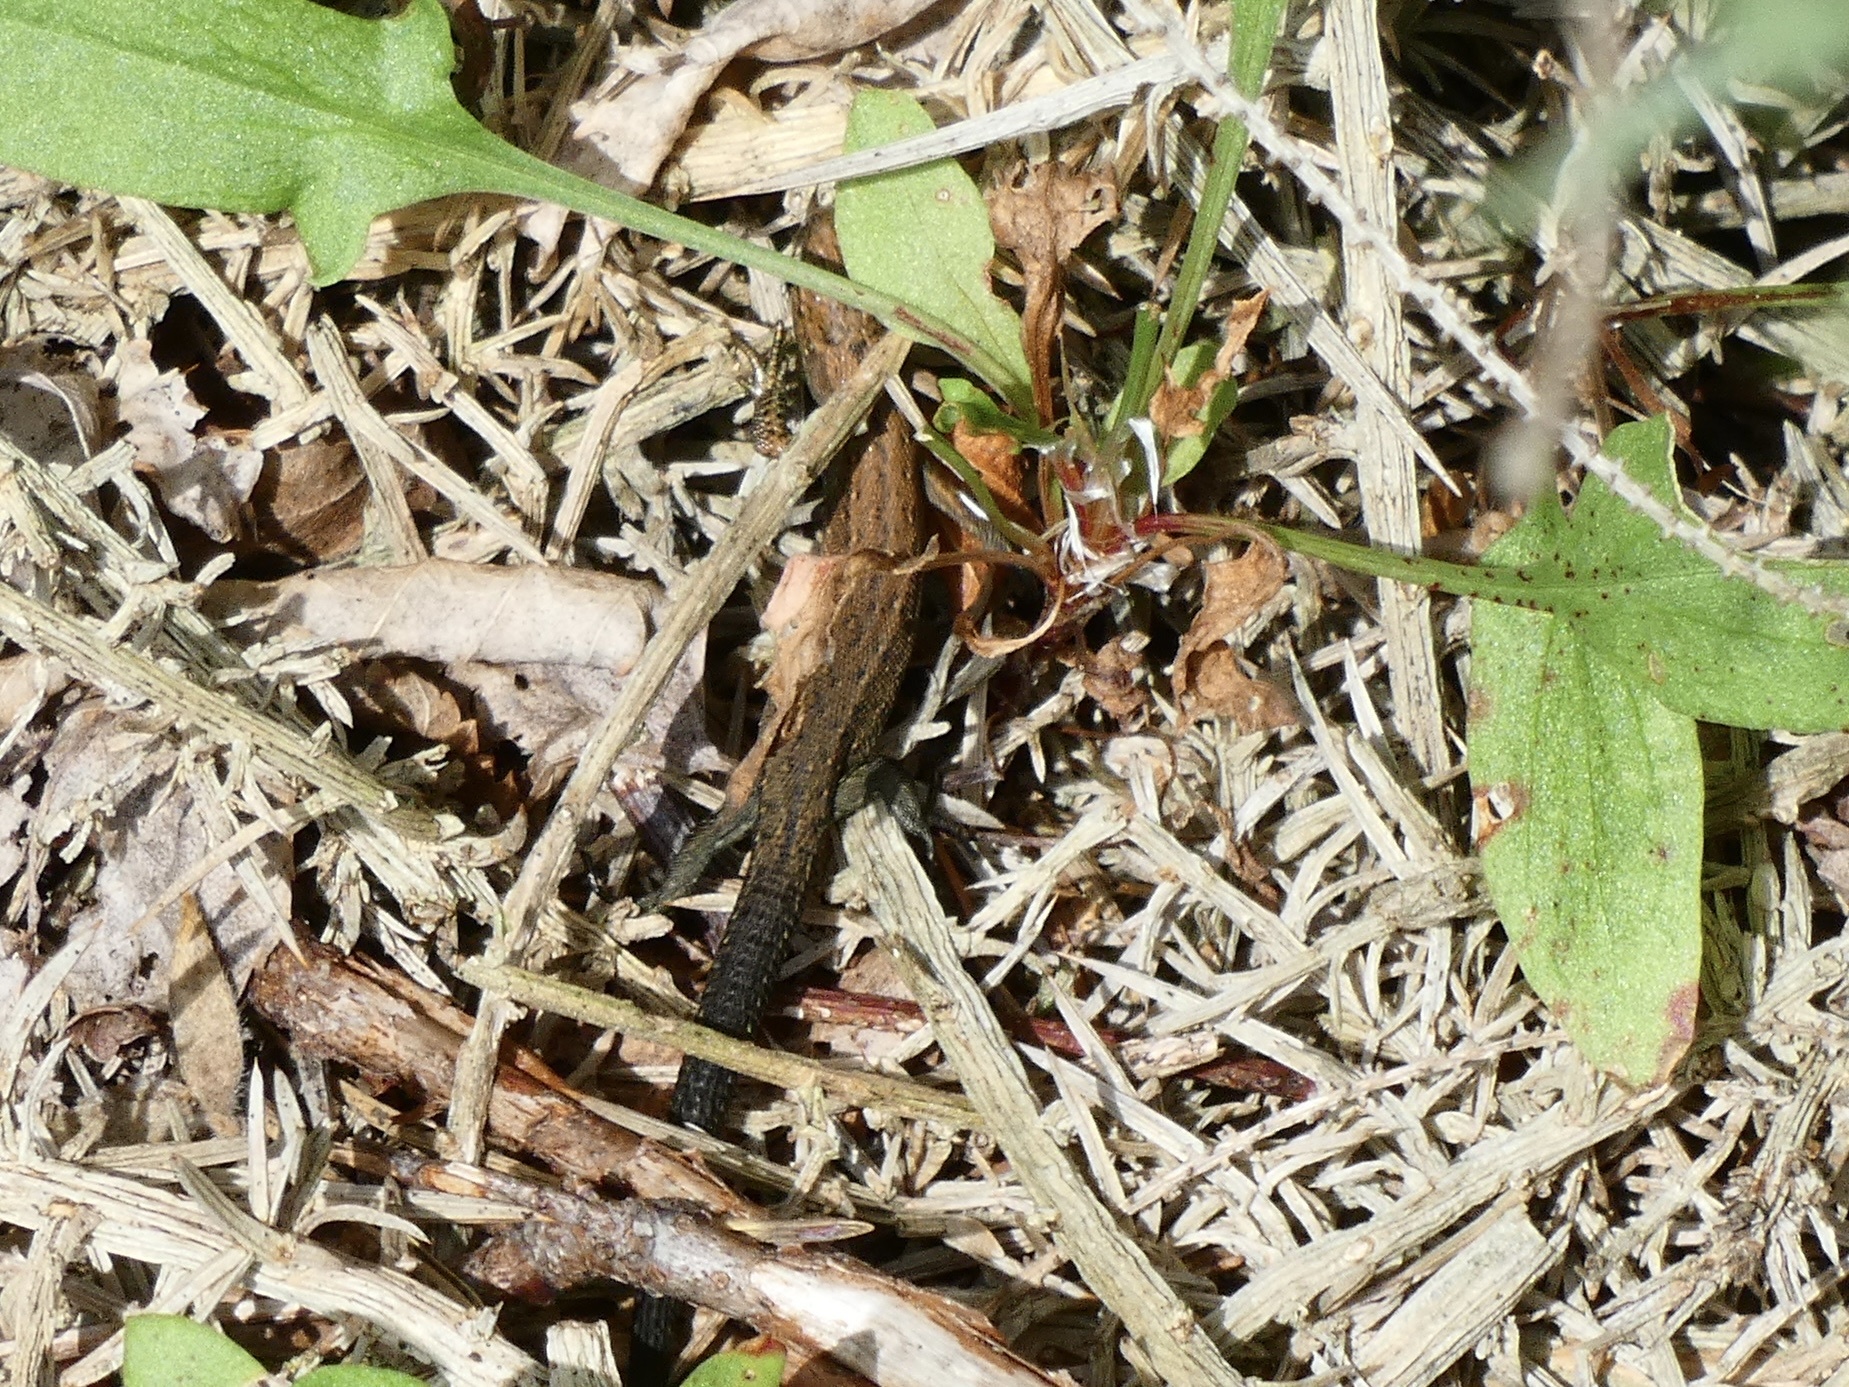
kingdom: Animalia
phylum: Chordata
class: Squamata
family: Lacertidae
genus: Zootoca
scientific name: Zootoca vivipara
